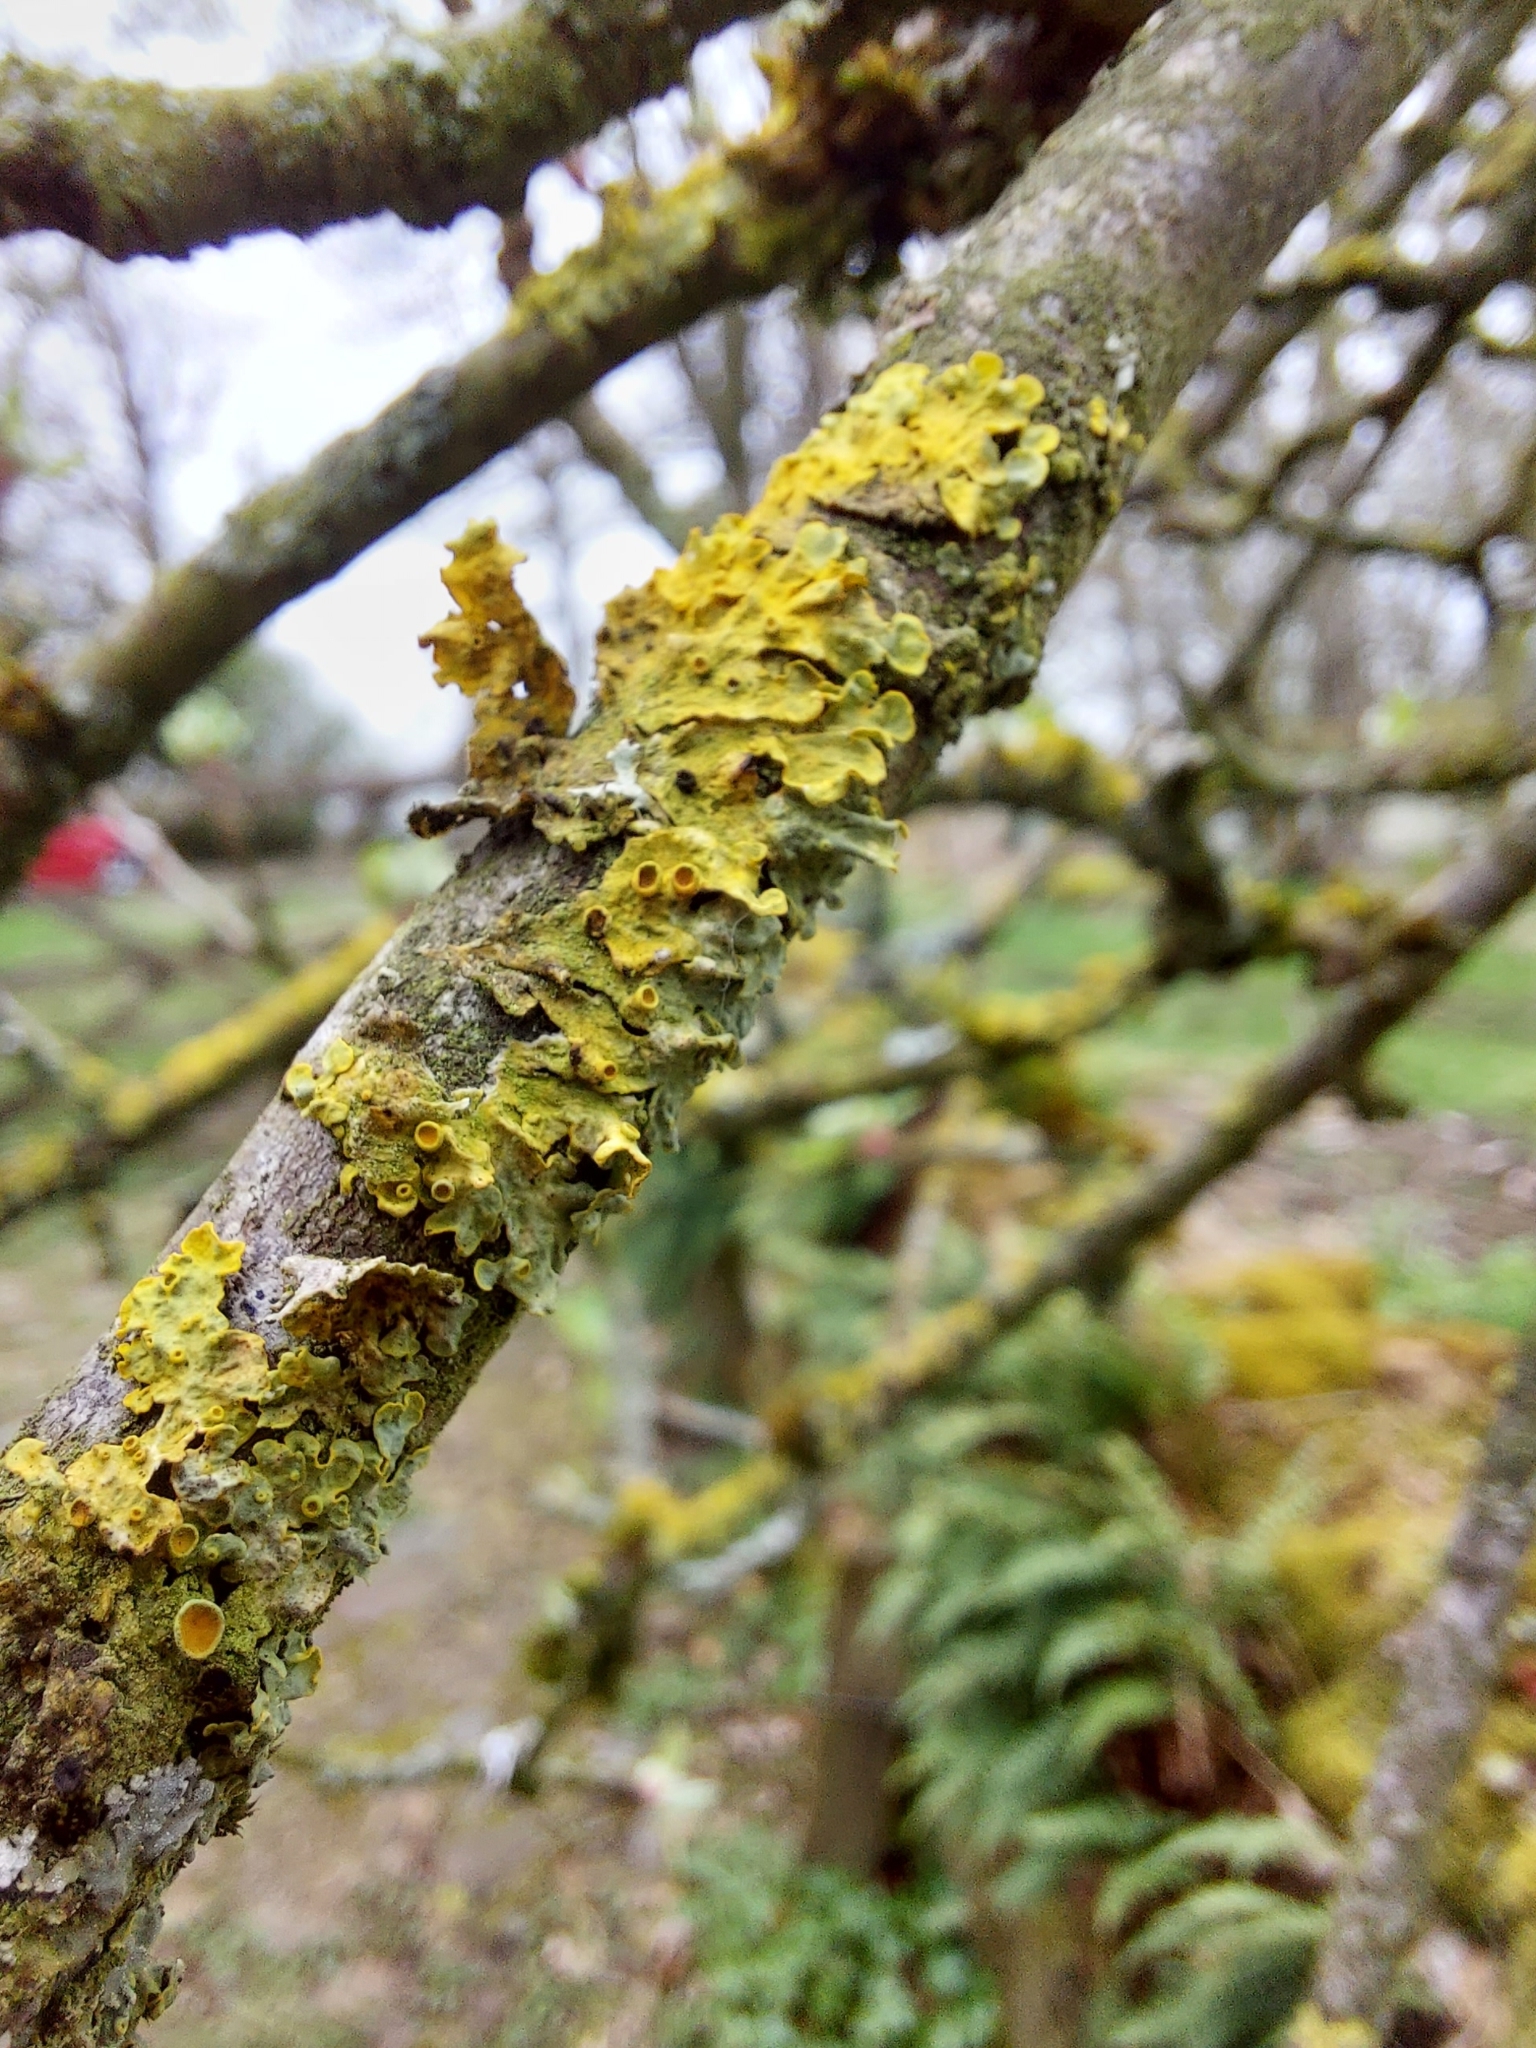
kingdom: Fungi
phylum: Ascomycota
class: Lecanoromycetes
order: Teloschistales
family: Teloschistaceae
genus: Xanthoria
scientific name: Xanthoria parietina
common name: Common orange lichen
